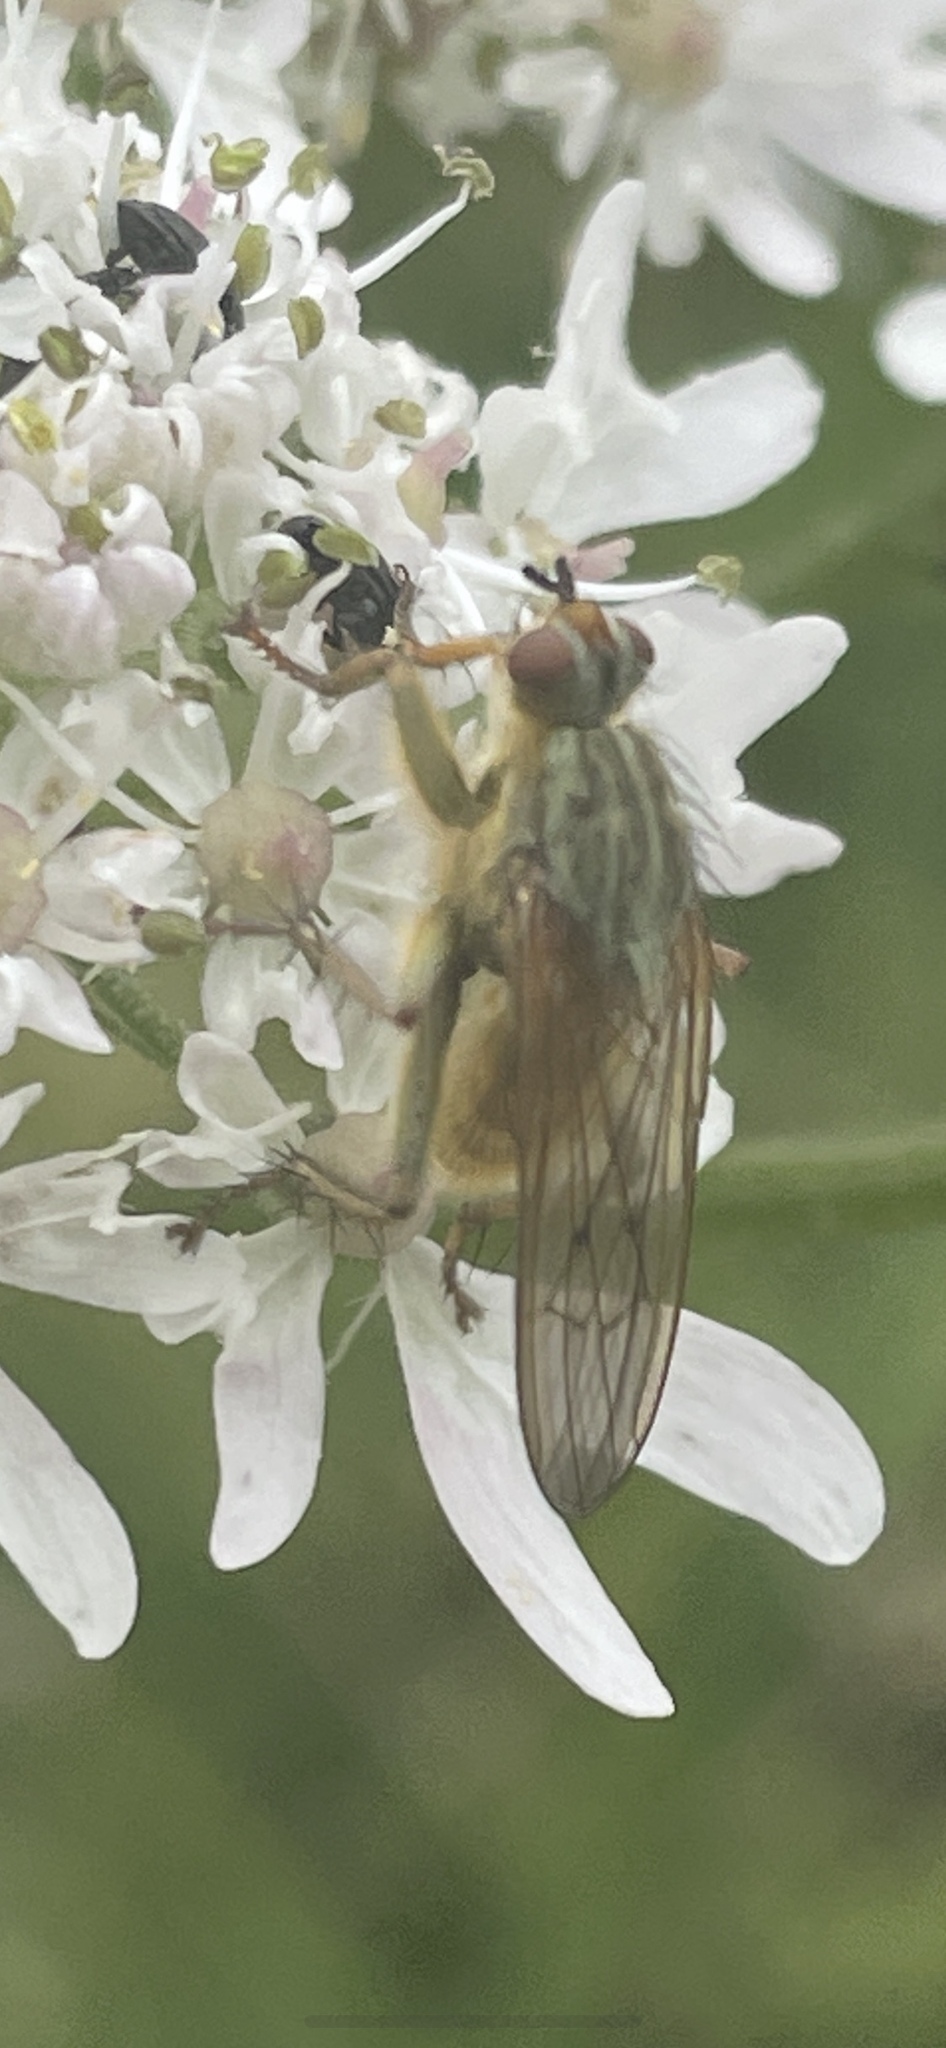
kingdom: Animalia
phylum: Arthropoda
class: Insecta
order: Diptera
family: Scathophagidae
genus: Scathophaga
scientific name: Scathophaga stercoraria
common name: Yellow dung fly
